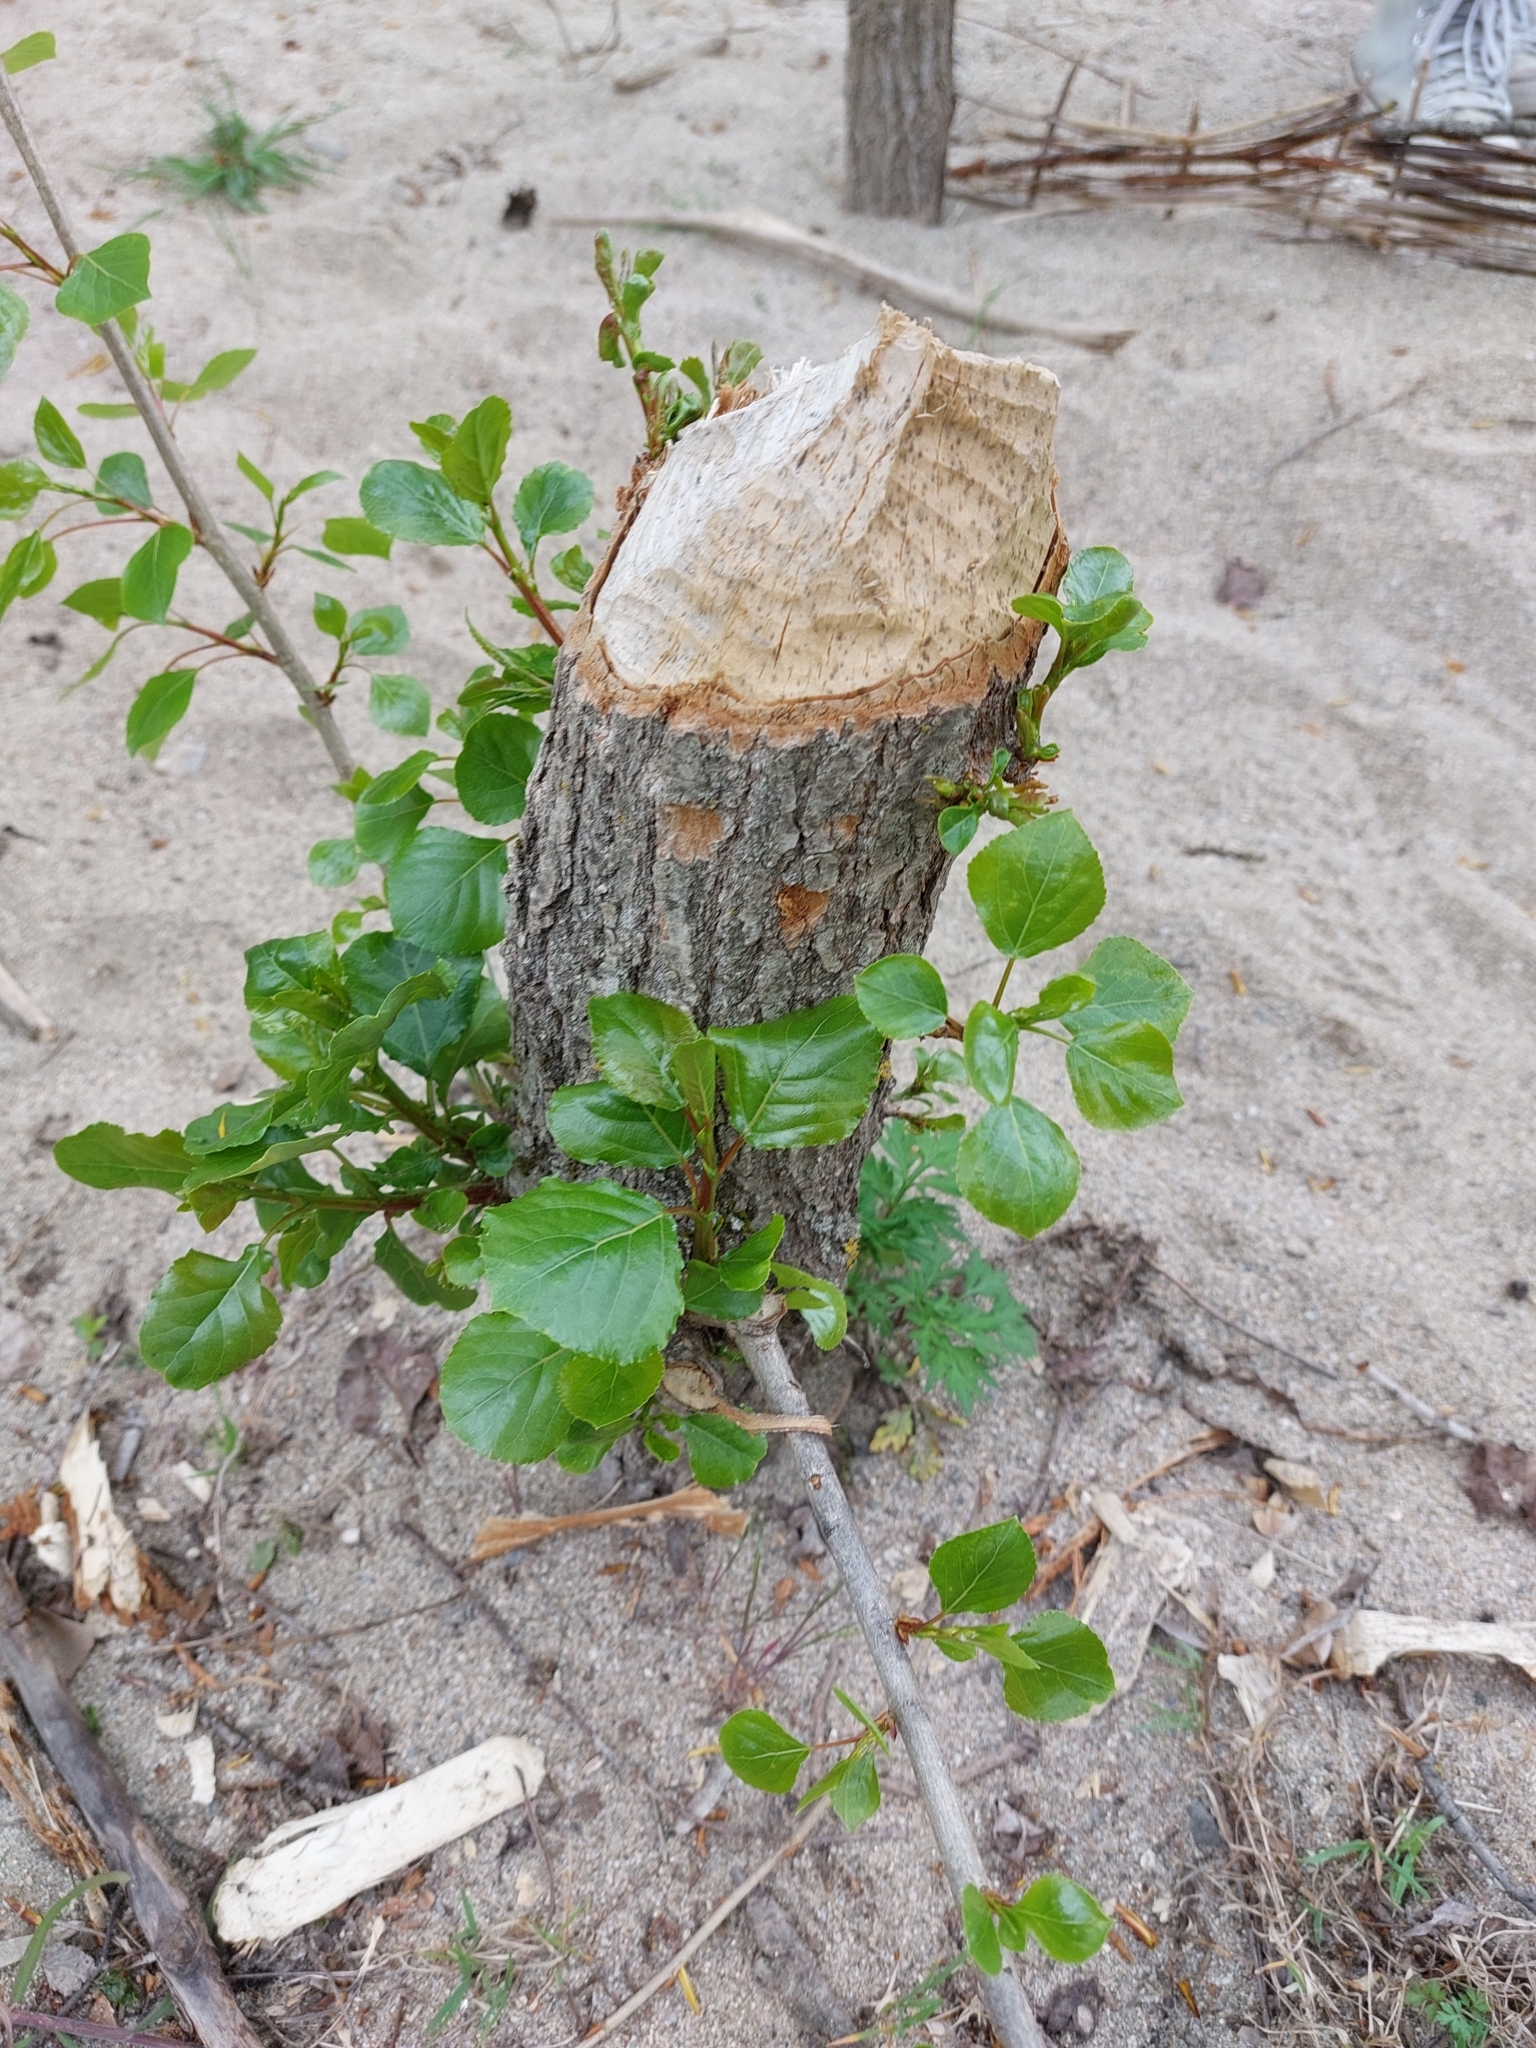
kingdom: Animalia
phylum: Chordata
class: Mammalia
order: Rodentia
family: Castoridae
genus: Castor
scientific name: Castor fiber
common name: Eurasian beaver
